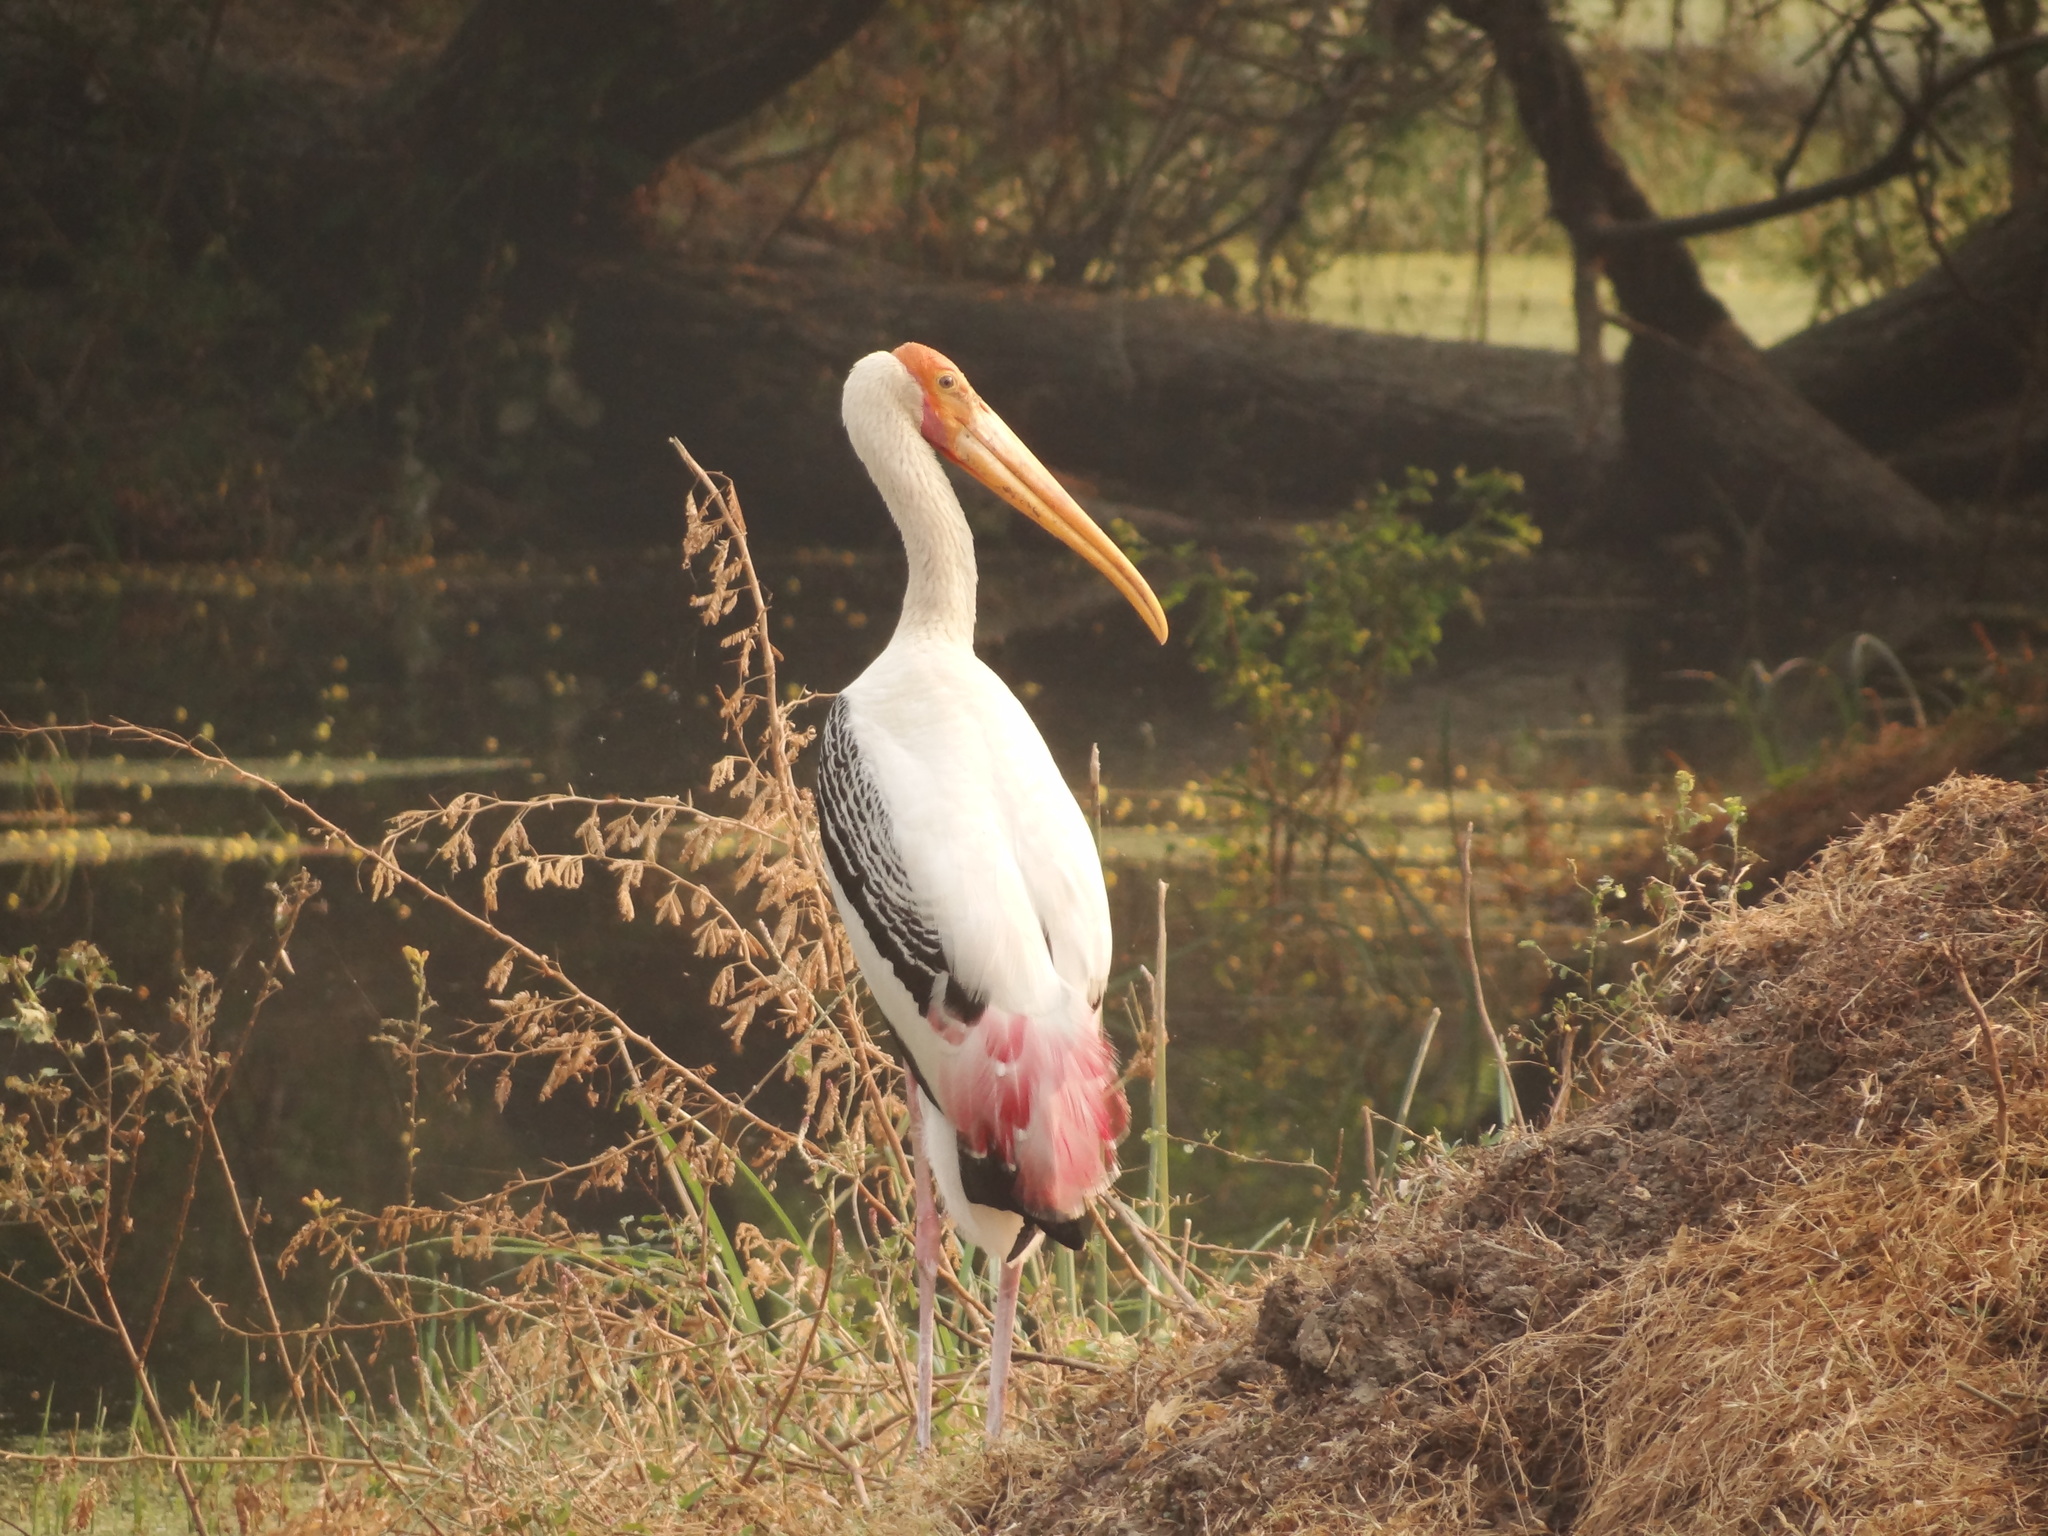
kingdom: Animalia
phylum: Chordata
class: Aves
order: Ciconiiformes
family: Ciconiidae
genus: Mycteria
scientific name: Mycteria leucocephala
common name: Painted stork
